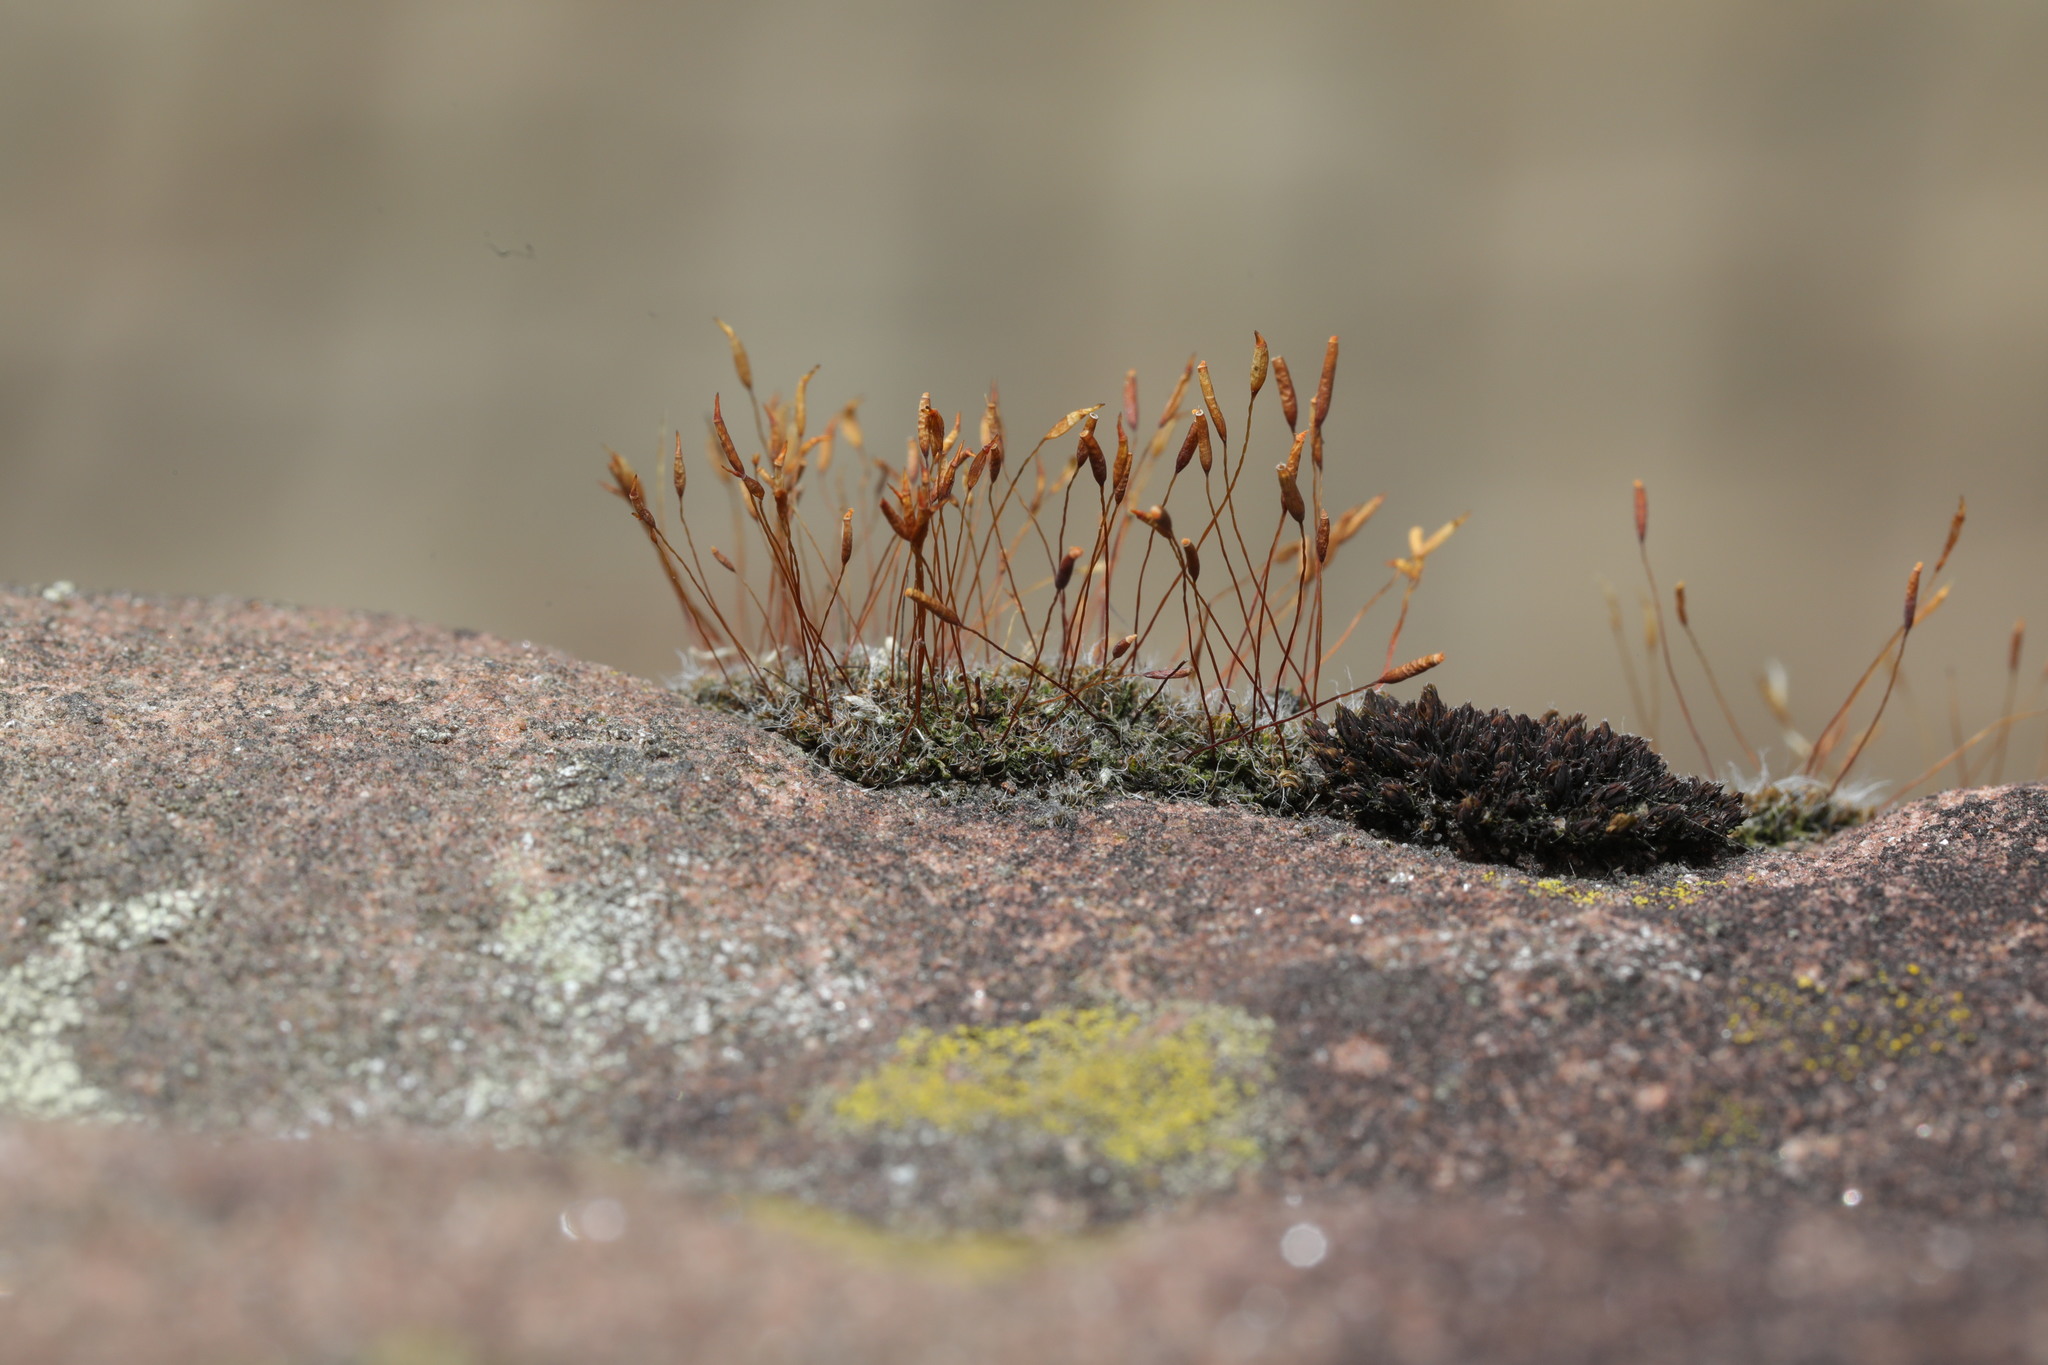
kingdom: Plantae
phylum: Bryophyta
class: Bryopsida
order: Pottiales
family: Pottiaceae
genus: Tortula
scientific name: Tortula muralis
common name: Wall screw-moss
